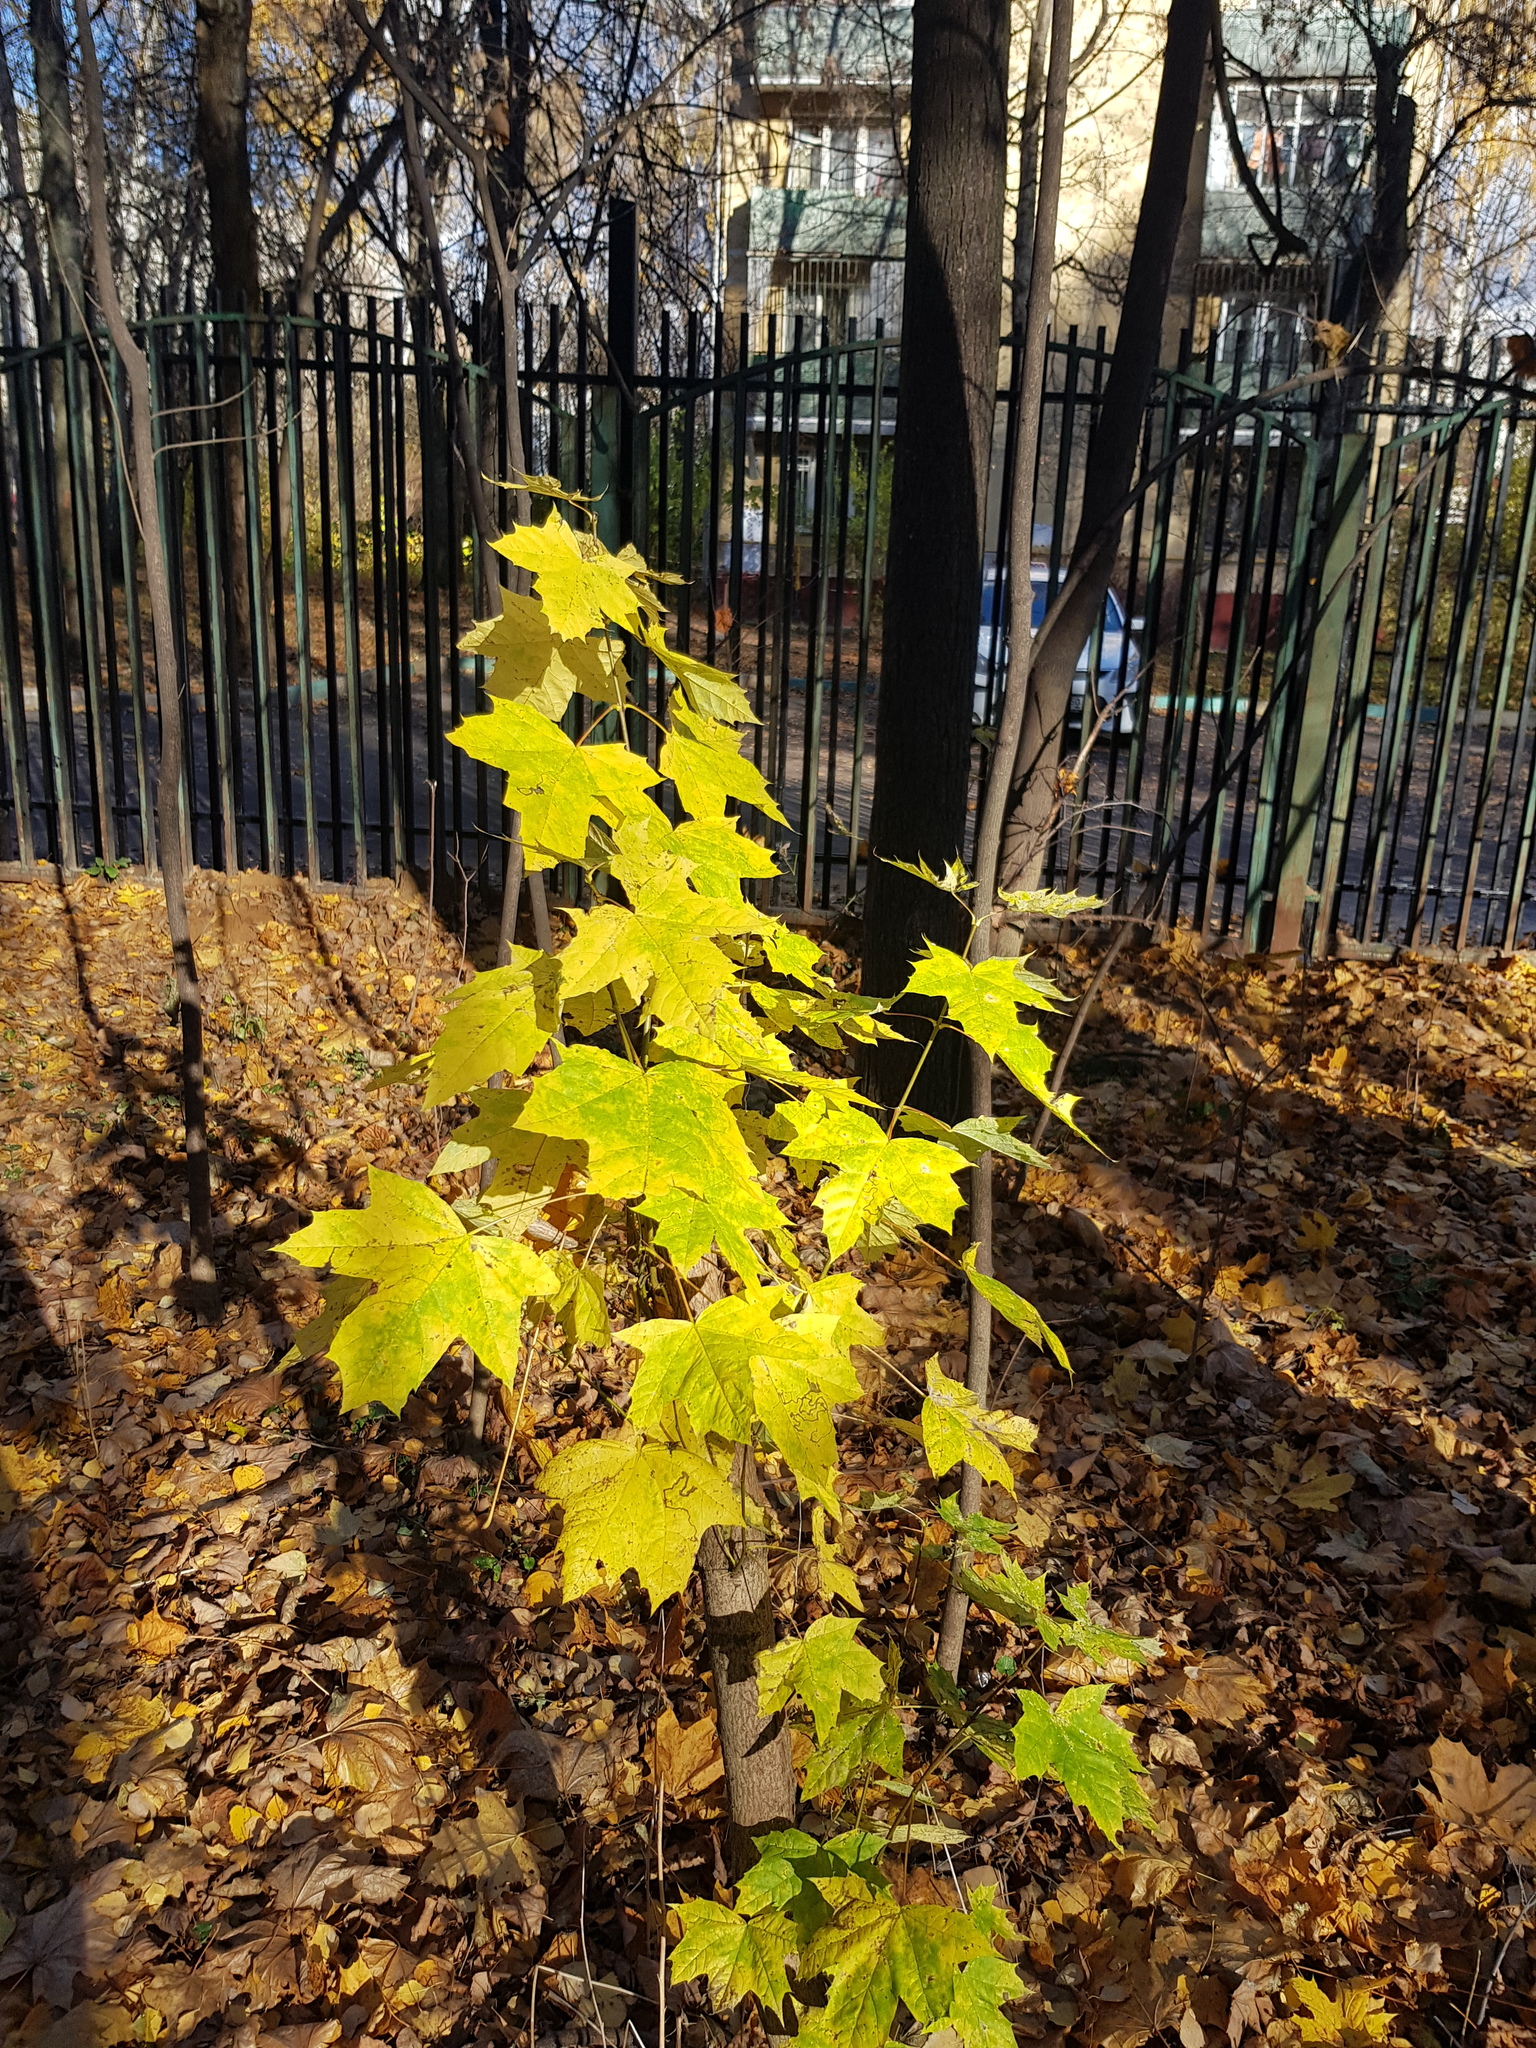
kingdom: Plantae
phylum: Tracheophyta
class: Magnoliopsida
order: Sapindales
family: Sapindaceae
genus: Acer
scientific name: Acer platanoides
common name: Norway maple
